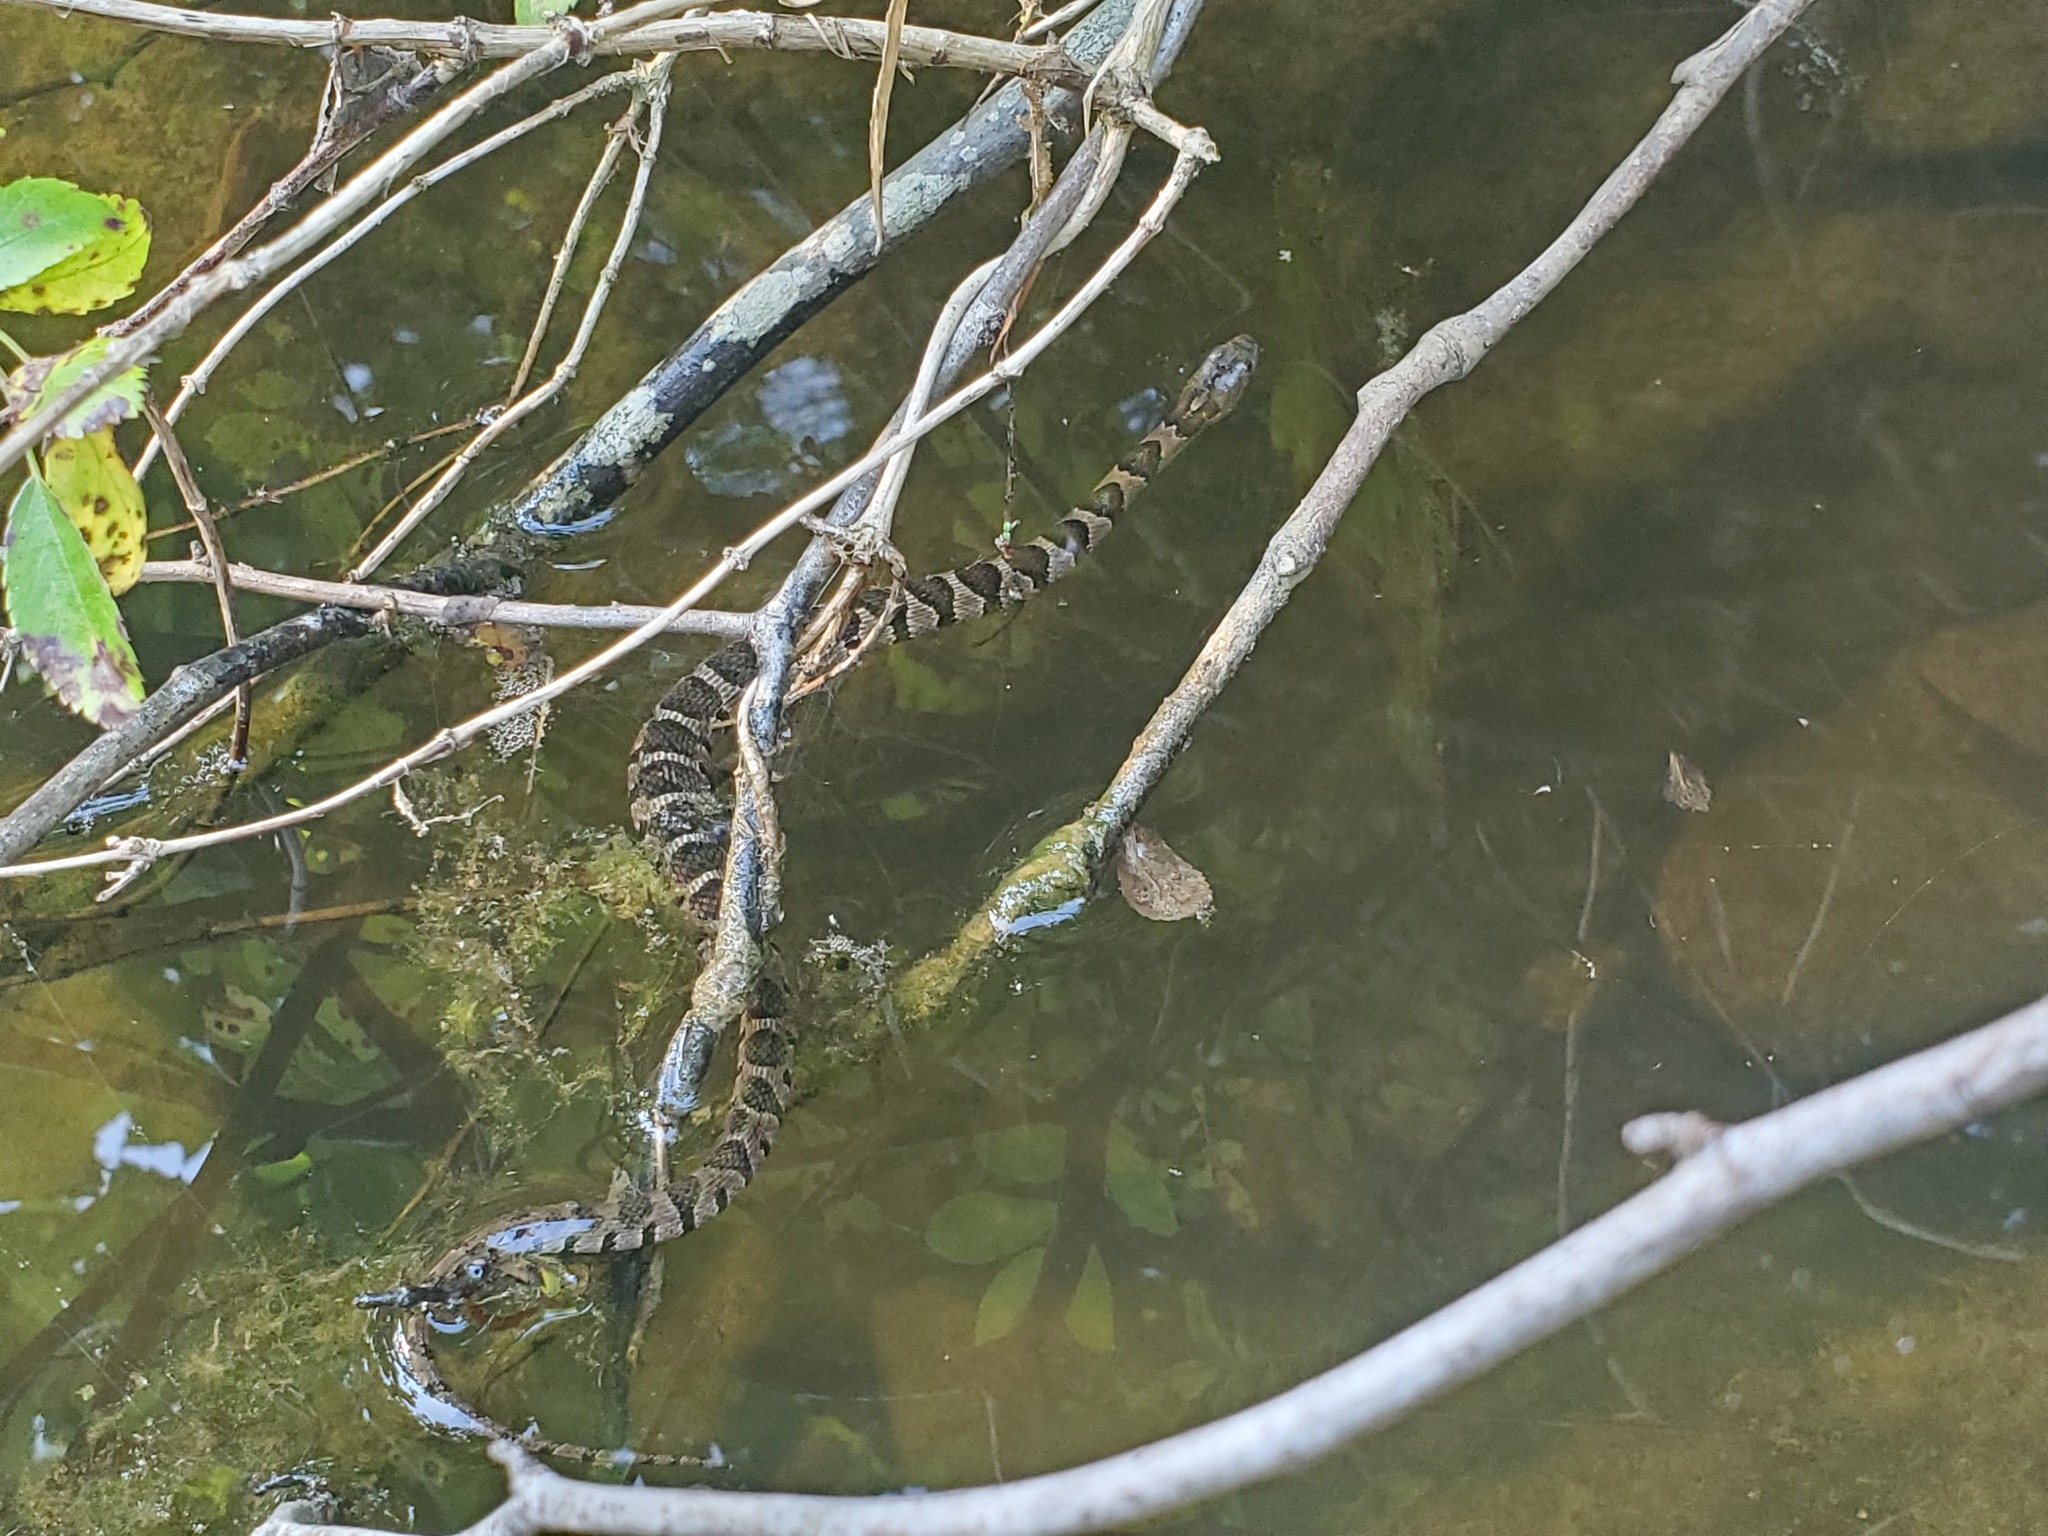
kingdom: Animalia
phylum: Chordata
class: Squamata
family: Colubridae
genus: Nerodia
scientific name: Nerodia sipedon
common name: Northern water snake
